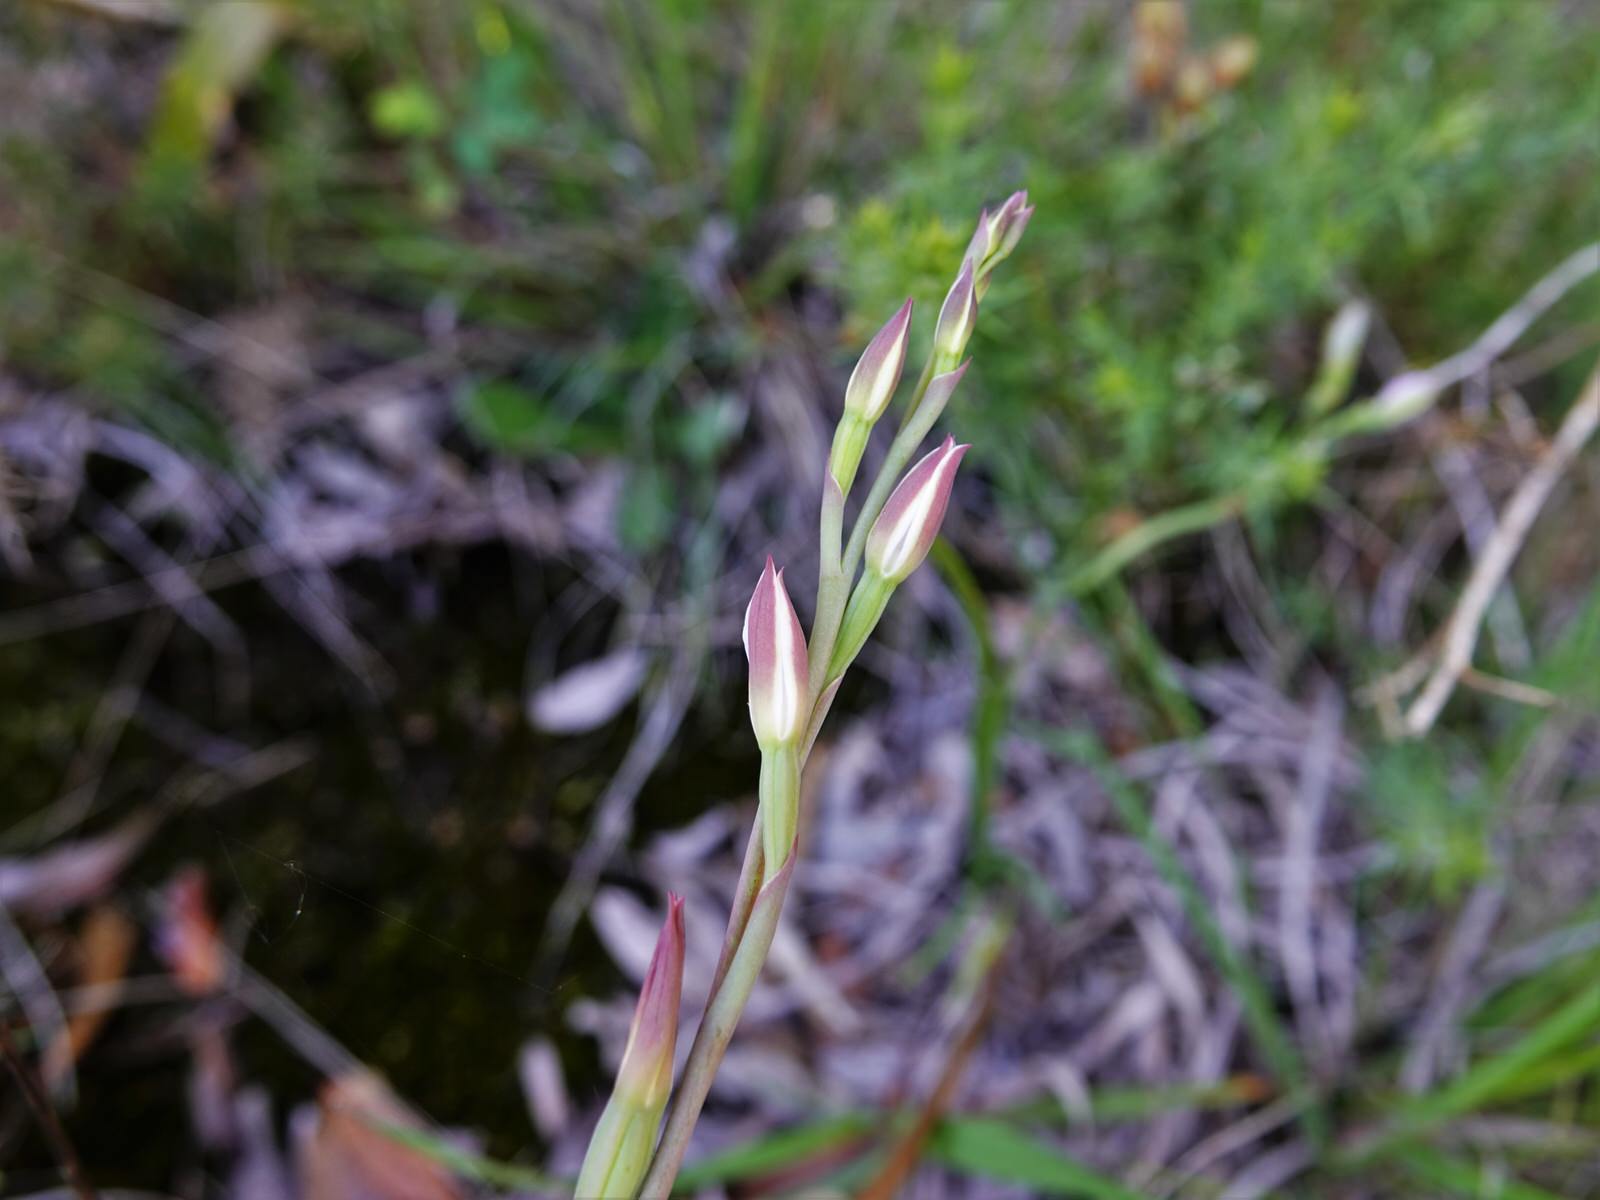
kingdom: Plantae
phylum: Tracheophyta
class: Liliopsida
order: Asparagales
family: Orchidaceae
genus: Thelymitra
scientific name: Thelymitra longifolia
